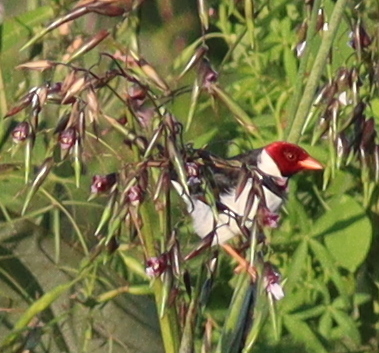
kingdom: Animalia
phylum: Chordata
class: Aves
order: Passeriformes
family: Thraupidae
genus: Paroaria
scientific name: Paroaria capitata
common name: Yellow-billed cardinal
